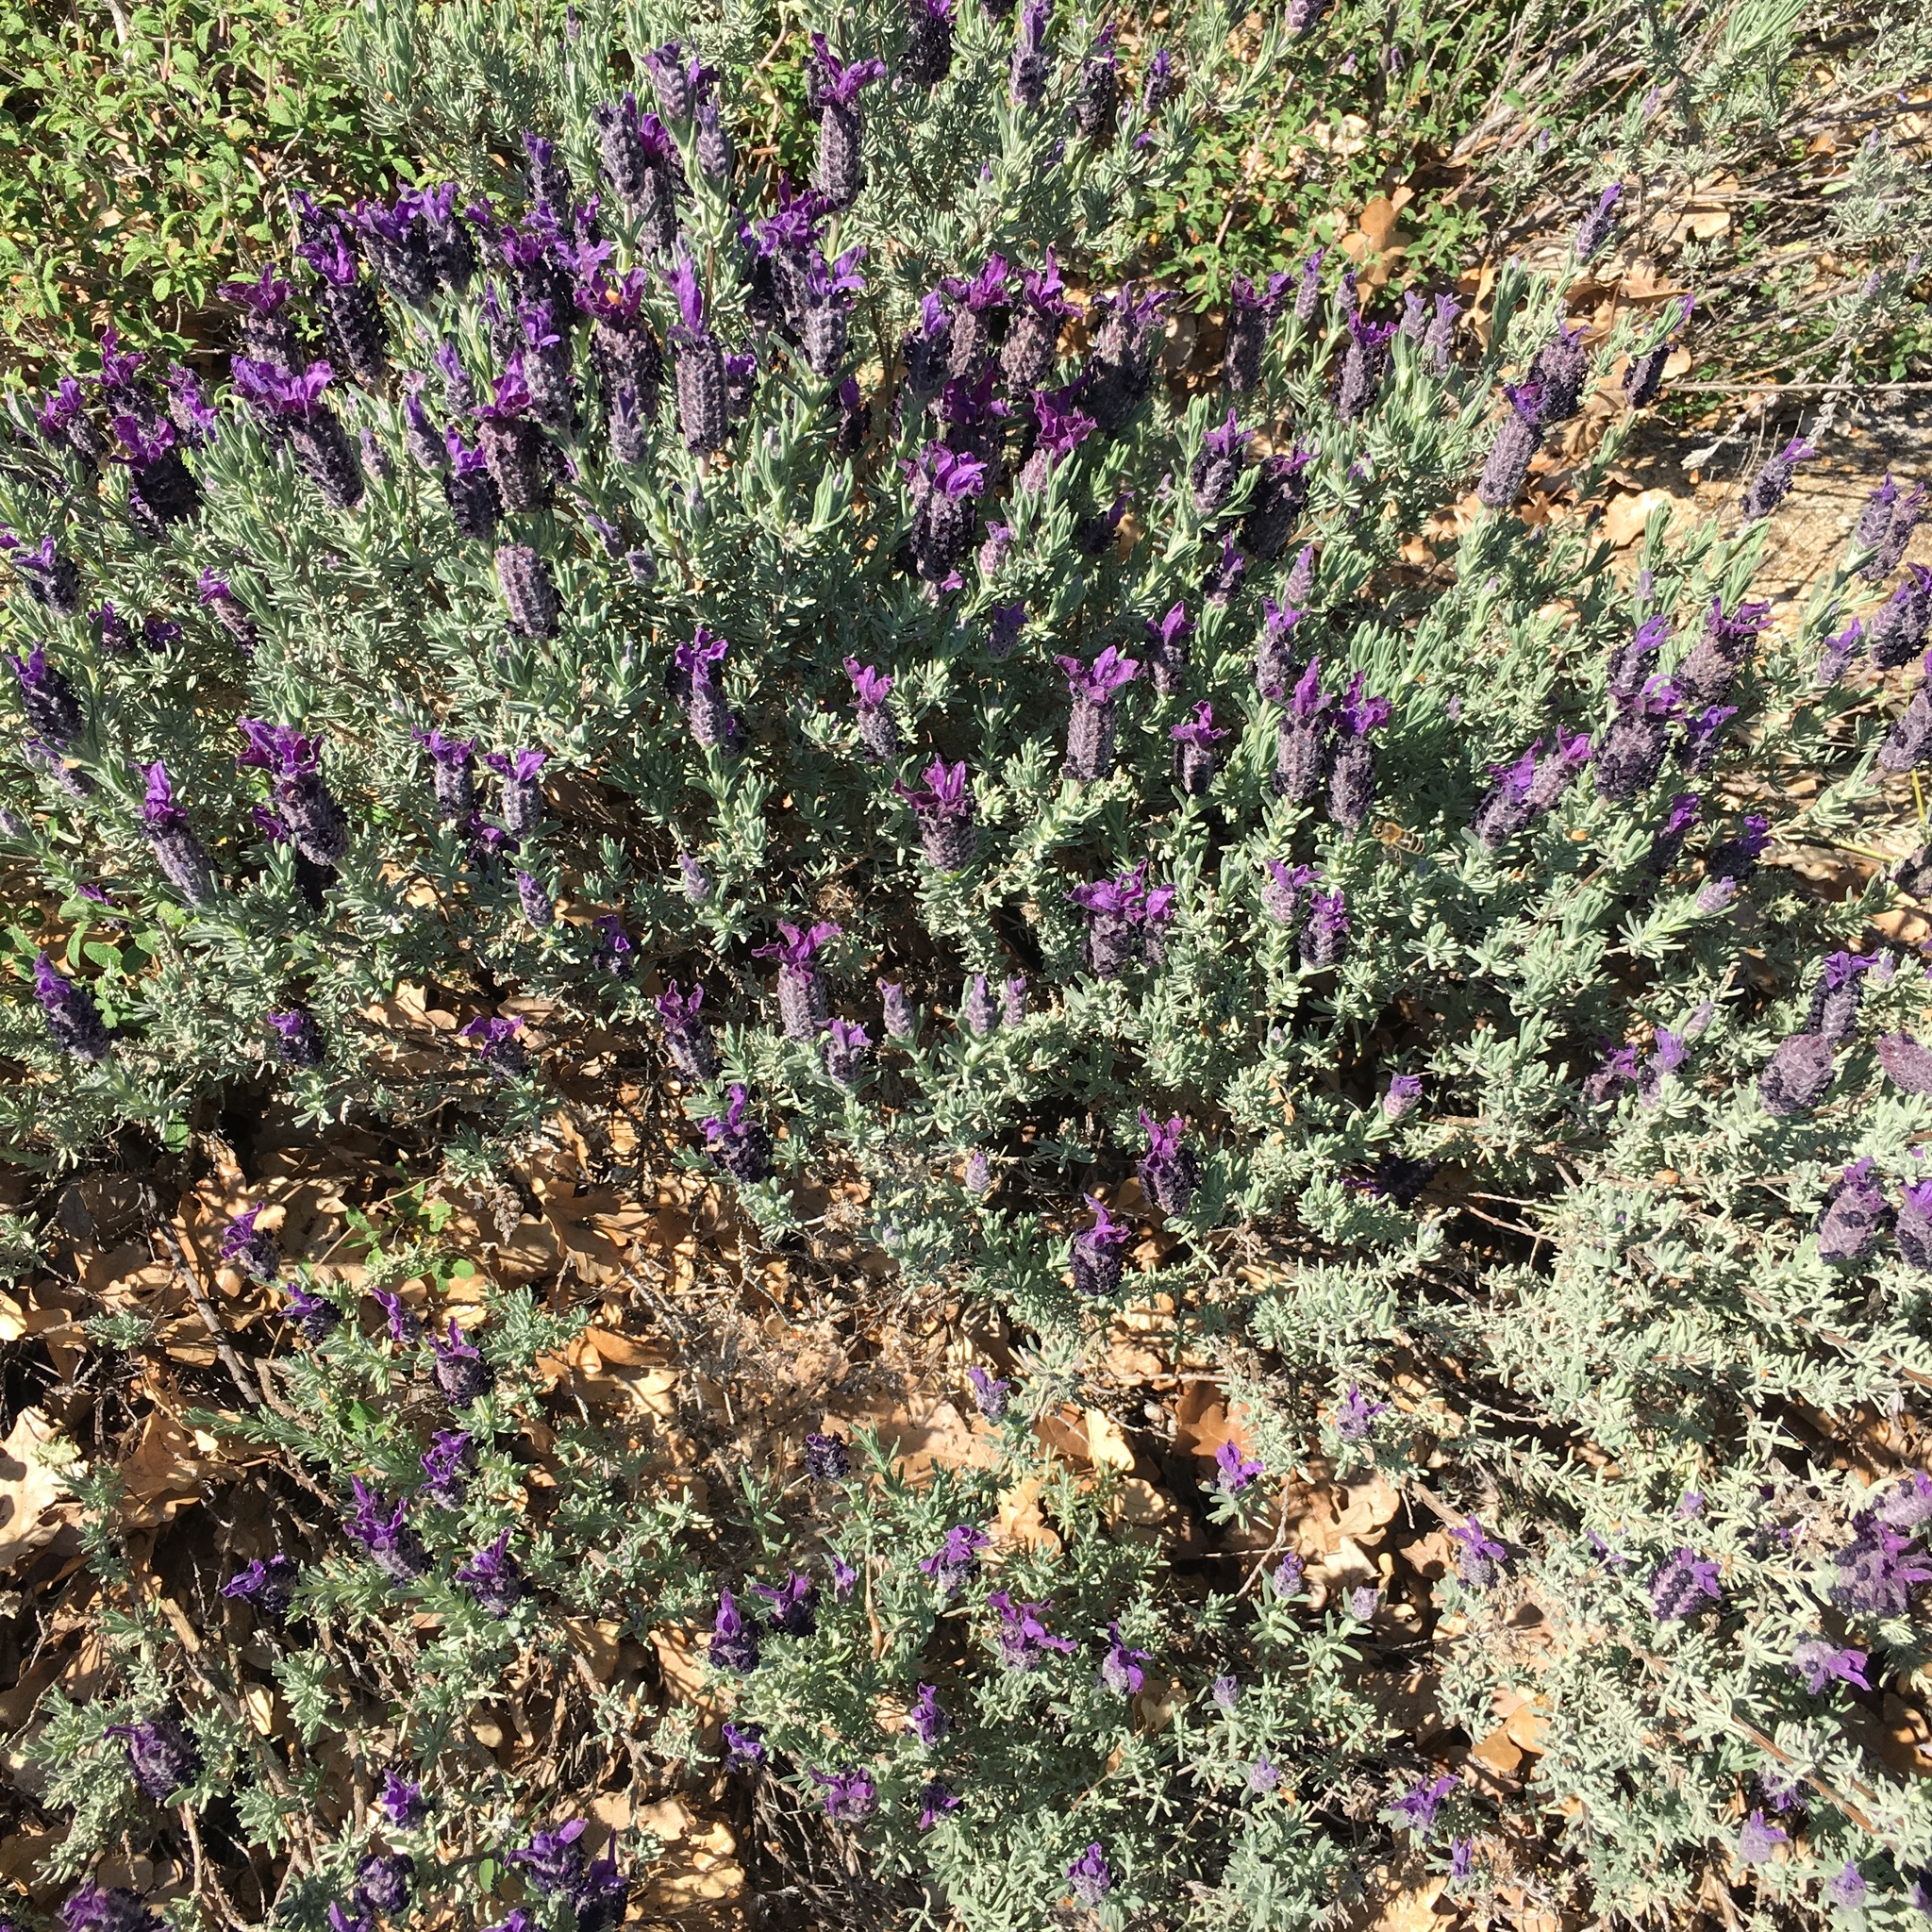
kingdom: Plantae
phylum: Tracheophyta
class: Magnoliopsida
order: Lamiales
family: Lamiaceae
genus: Lavandula
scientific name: Lavandula stoechas
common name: French lavender
